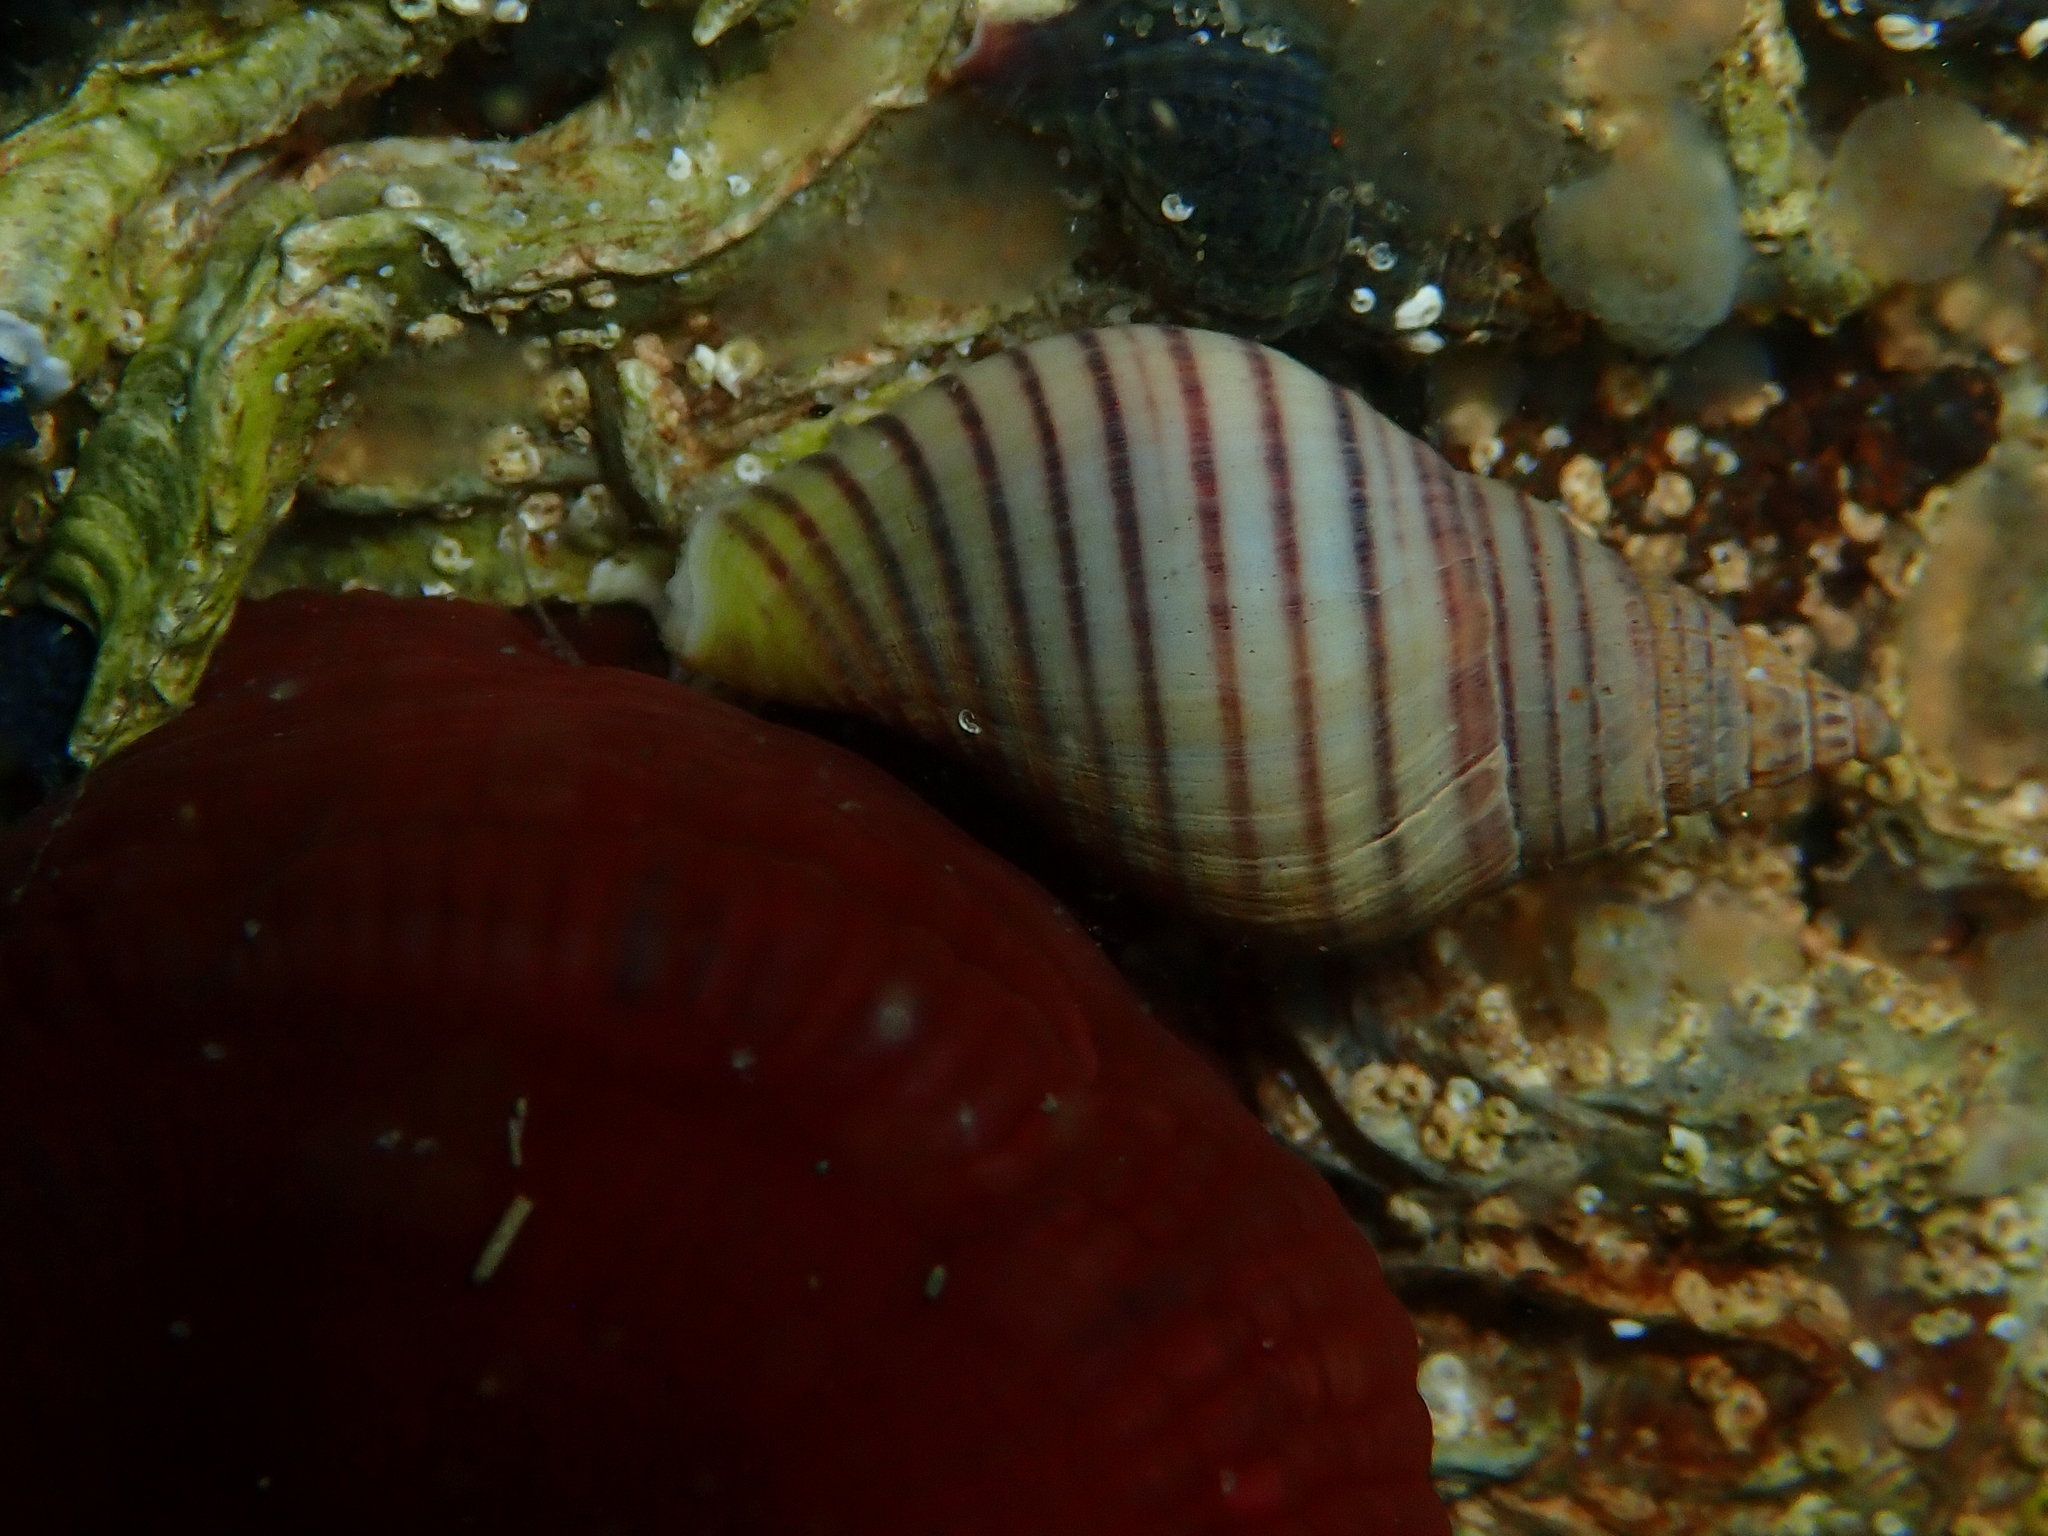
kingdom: Animalia
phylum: Mollusca
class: Gastropoda
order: Neogastropoda
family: Tudiclidae
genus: Buccinulum
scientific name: Buccinulum littorinoides
